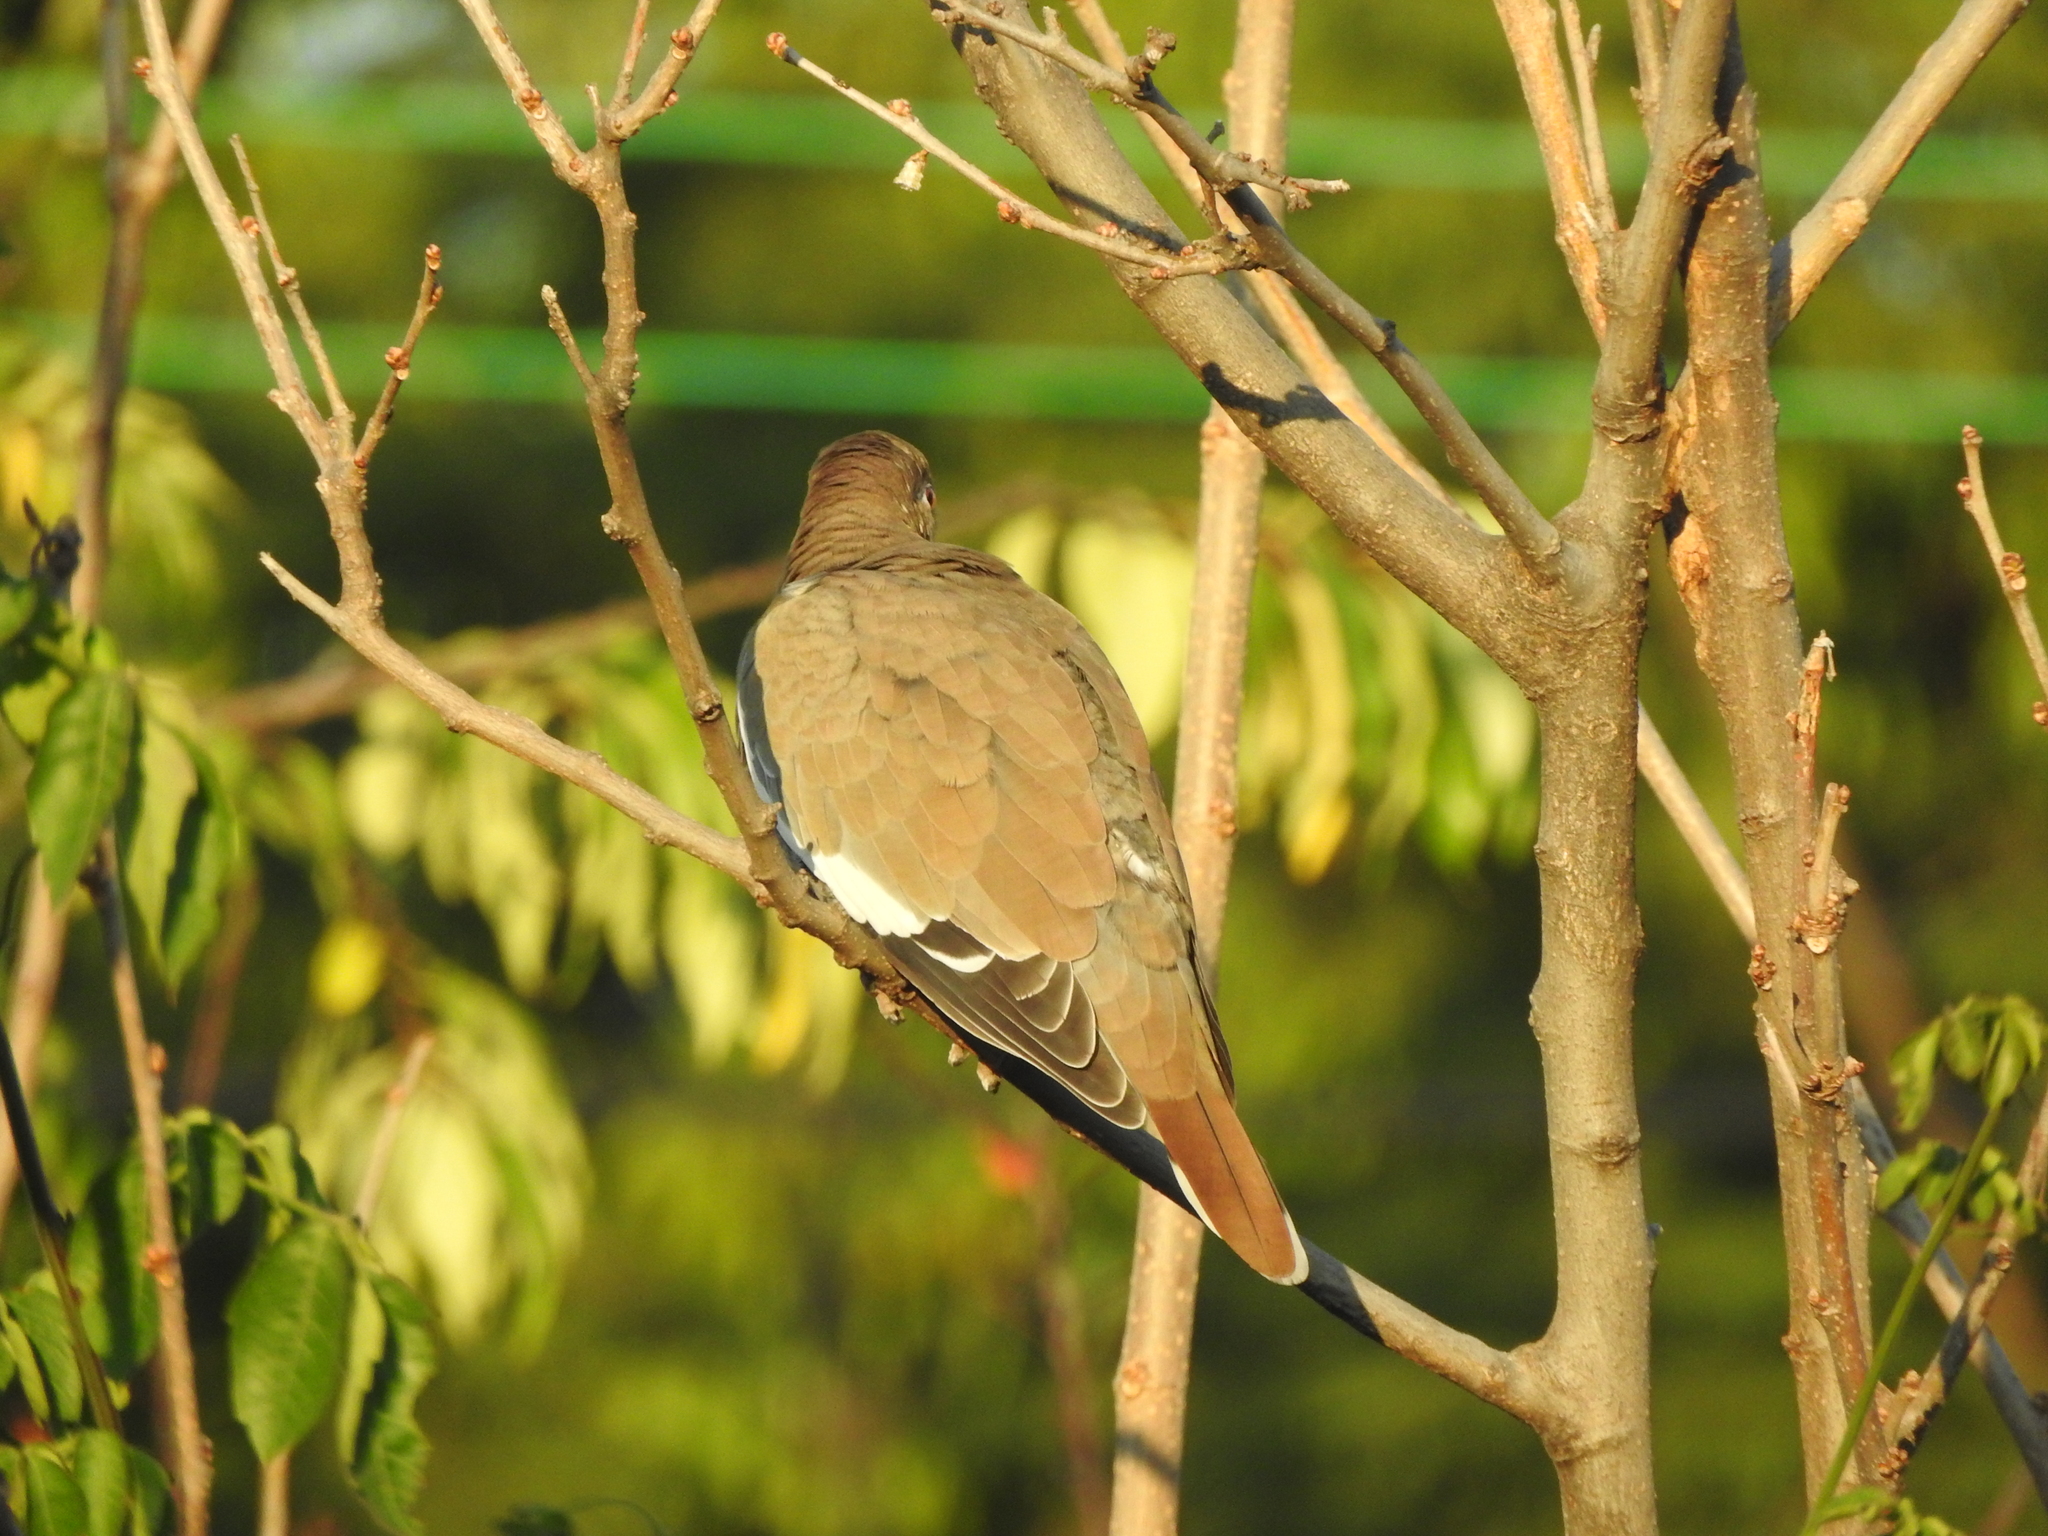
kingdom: Animalia
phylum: Chordata
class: Aves
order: Columbiformes
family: Columbidae
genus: Zenaida
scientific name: Zenaida asiatica
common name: White-winged dove
